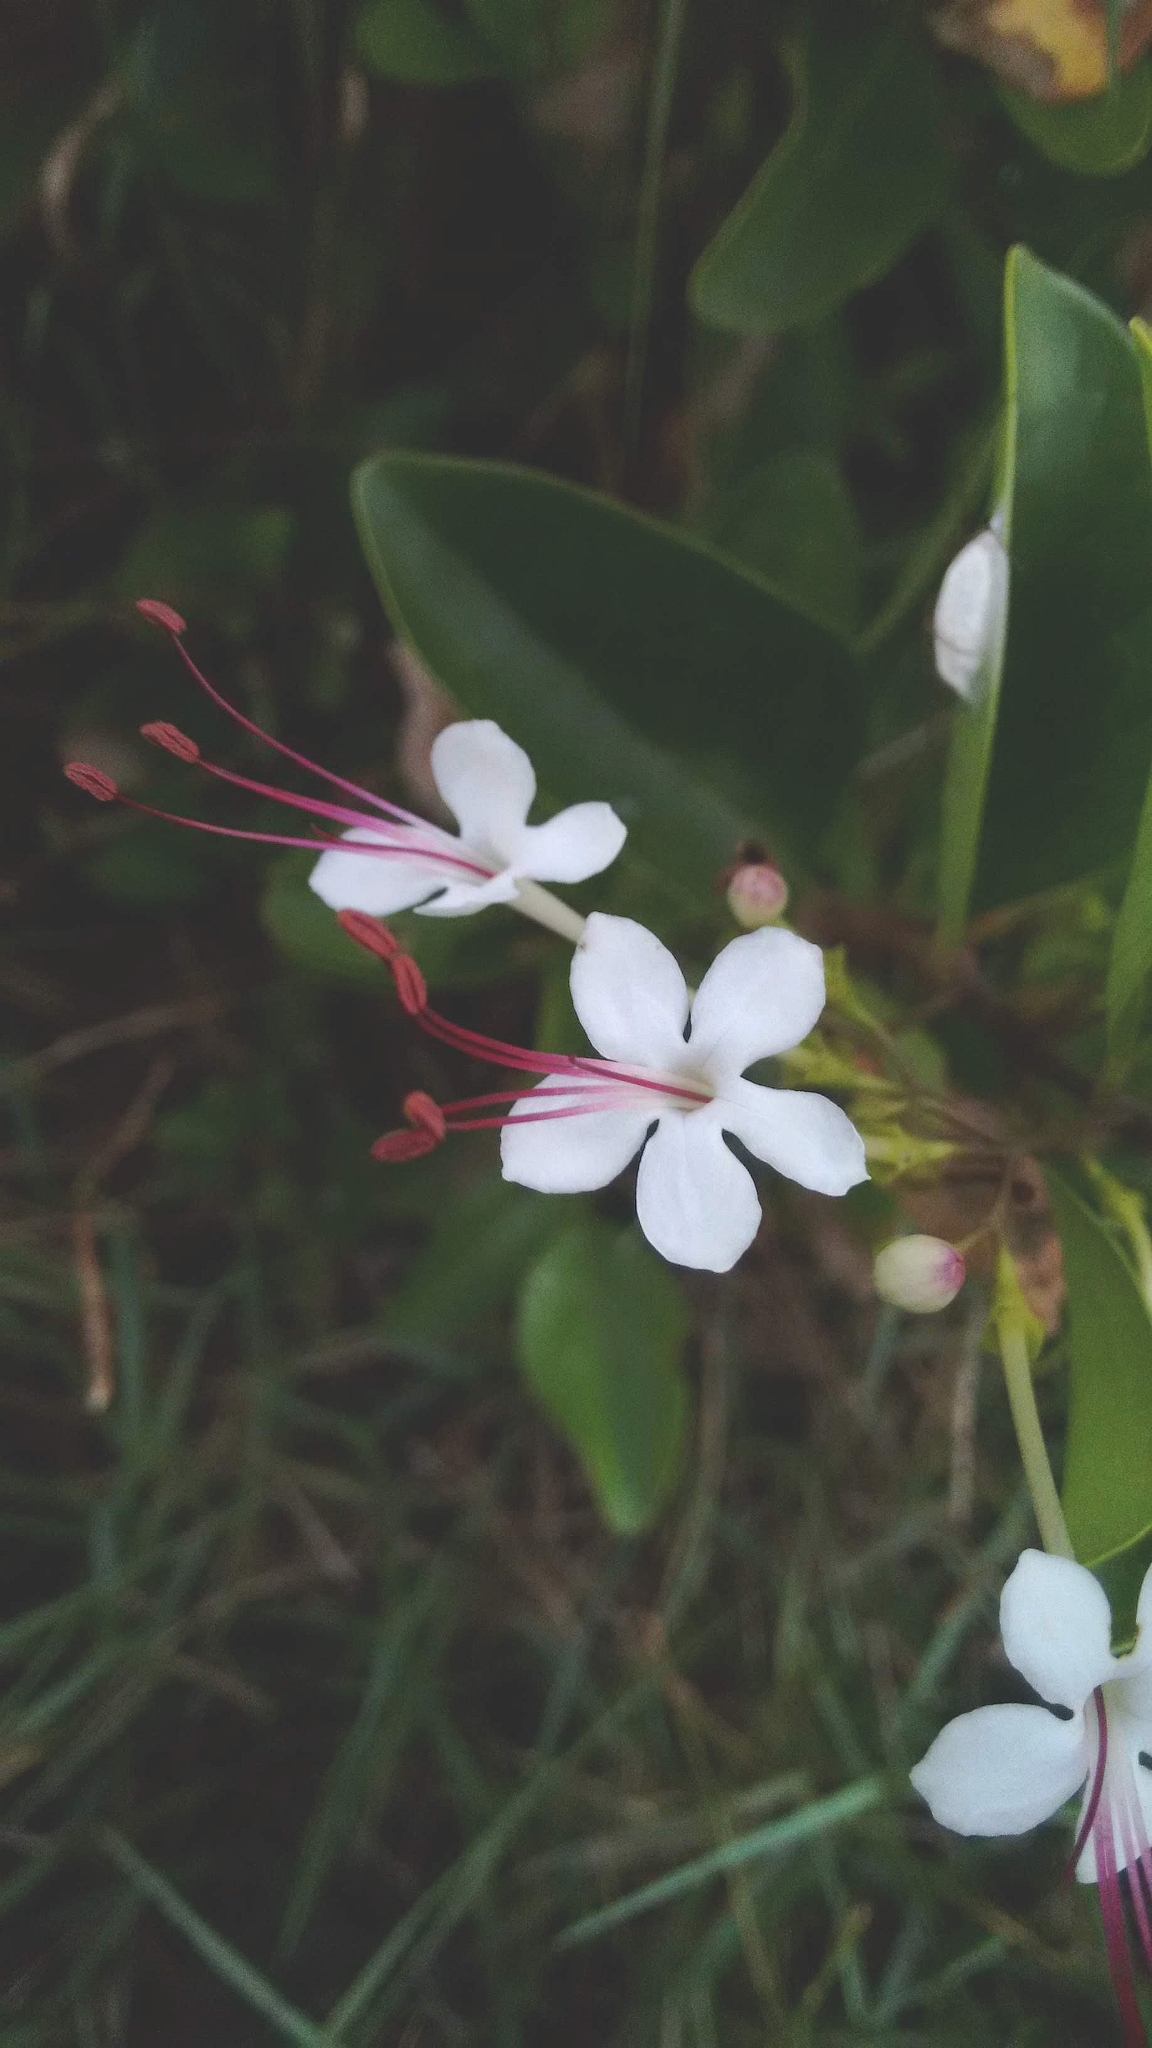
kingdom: Plantae
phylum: Tracheophyta
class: Magnoliopsida
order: Lamiales
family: Lamiaceae
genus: Volkameria
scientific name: Volkameria inermis
